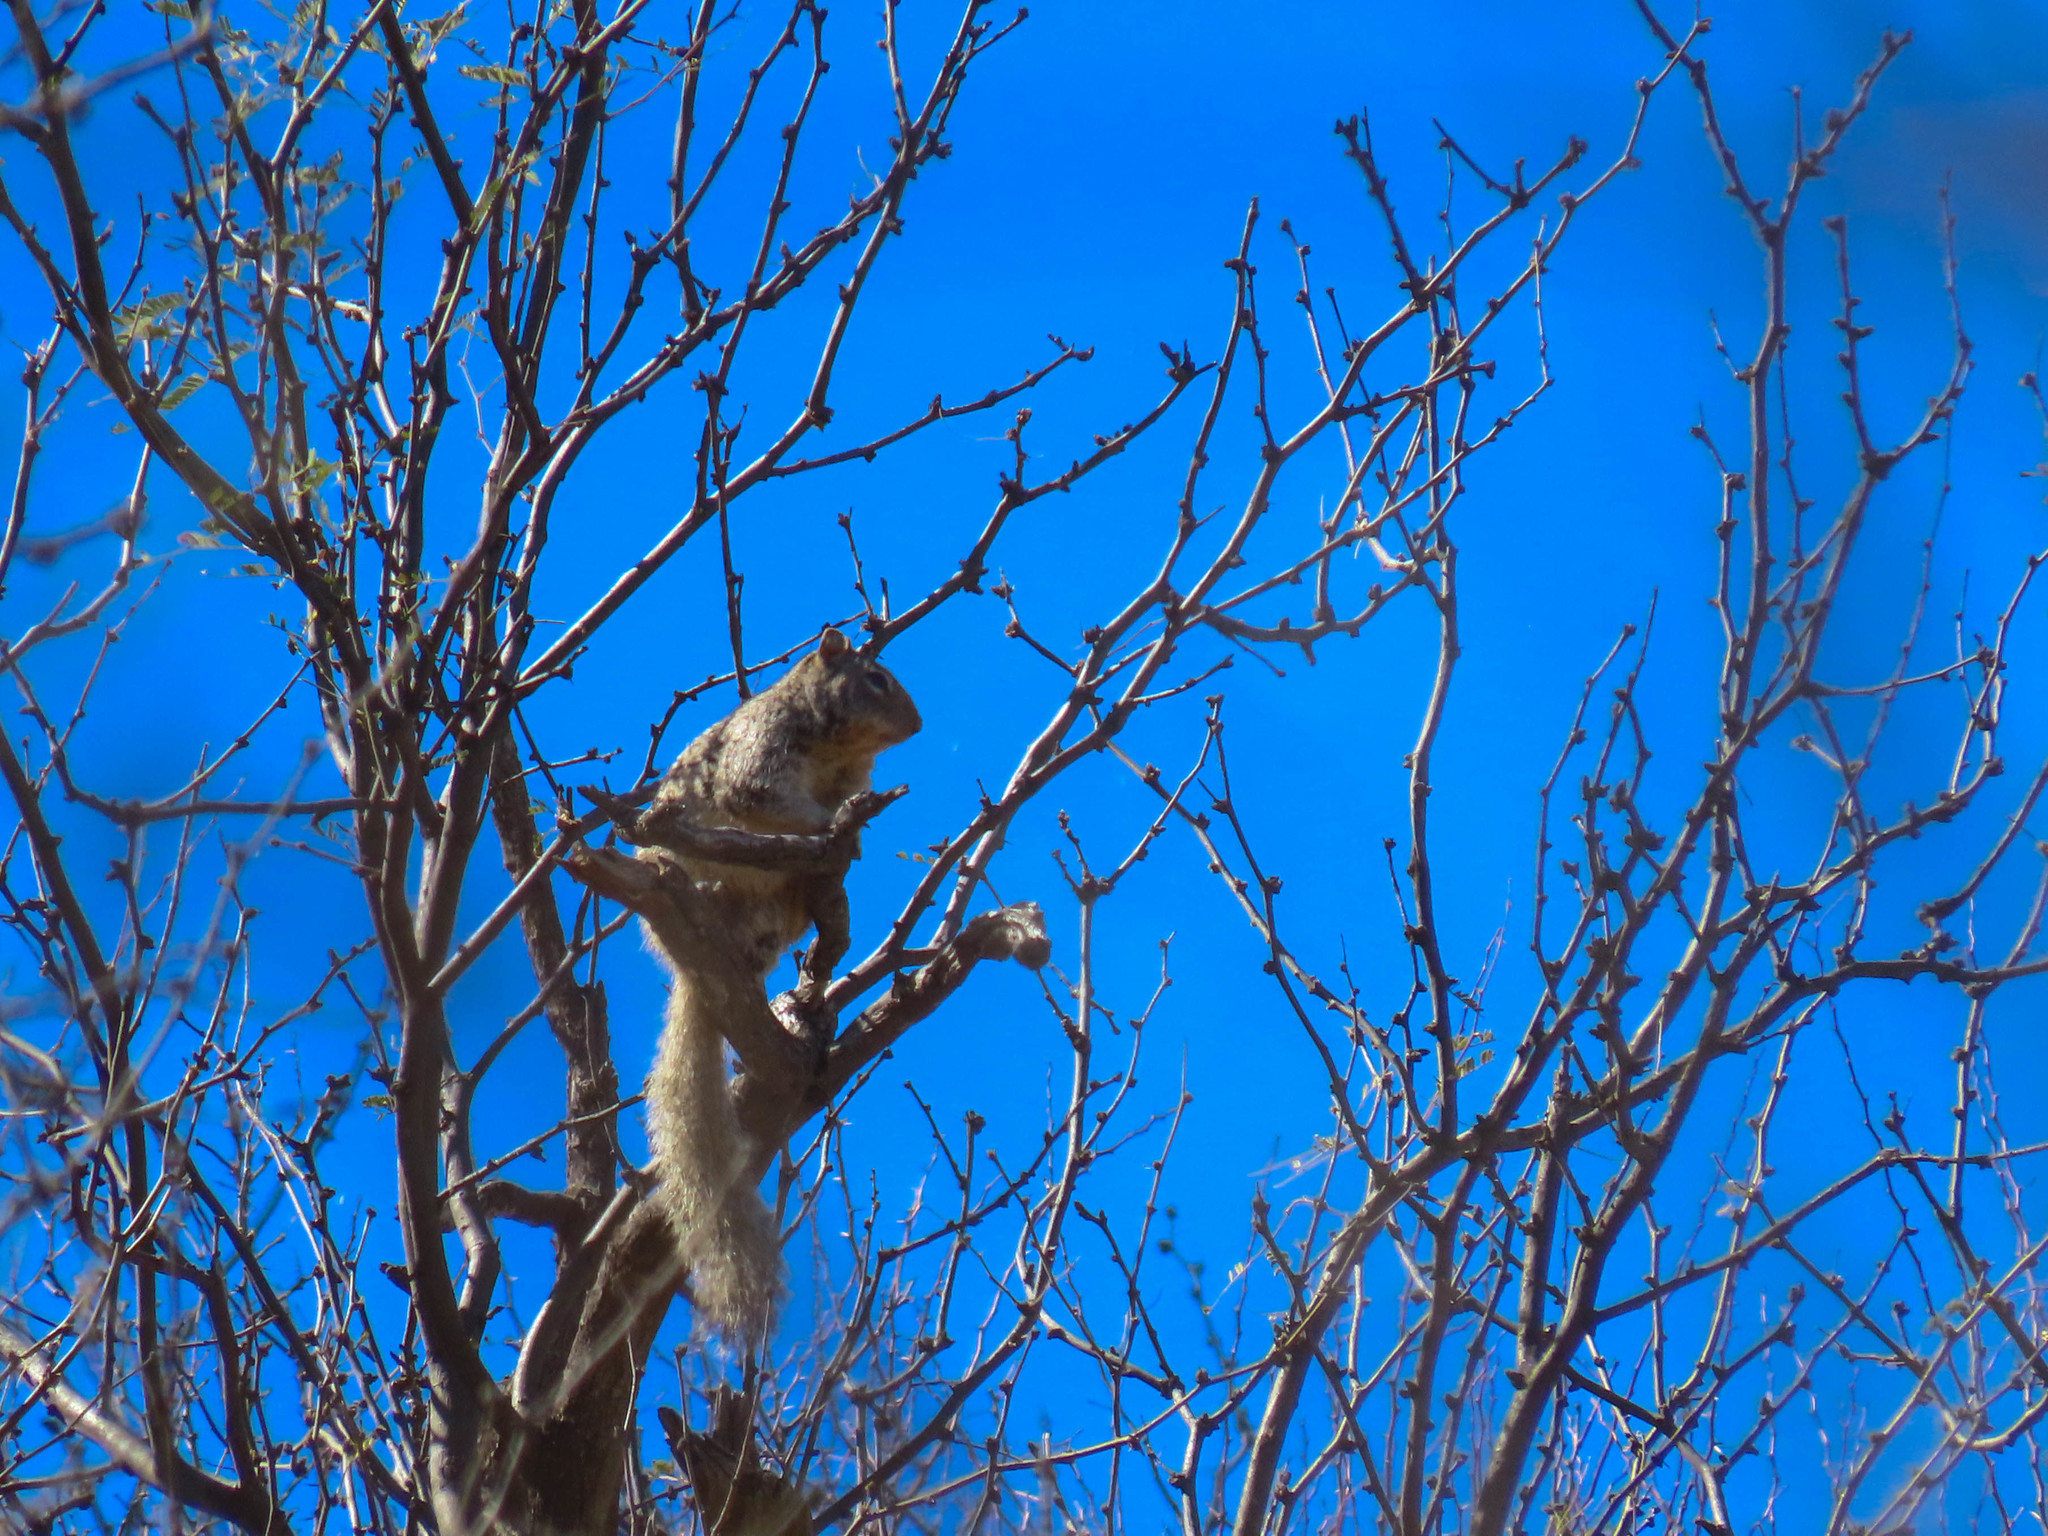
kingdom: Animalia
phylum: Chordata
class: Mammalia
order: Rodentia
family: Sciuridae
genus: Otospermophilus
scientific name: Otospermophilus variegatus
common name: Rock squirrel
